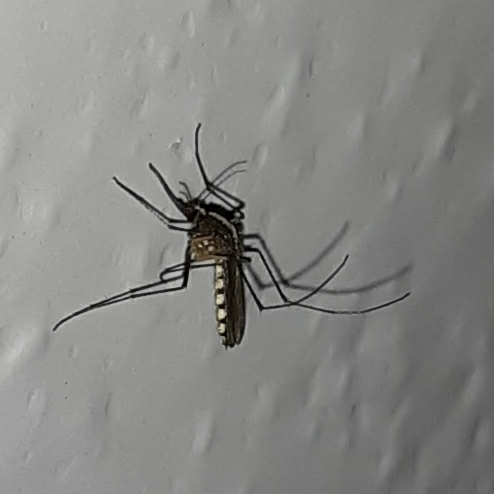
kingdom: Animalia
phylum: Arthropoda
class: Insecta
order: Diptera
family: Culicidae
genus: Aedes
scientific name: Aedes atlanticus
